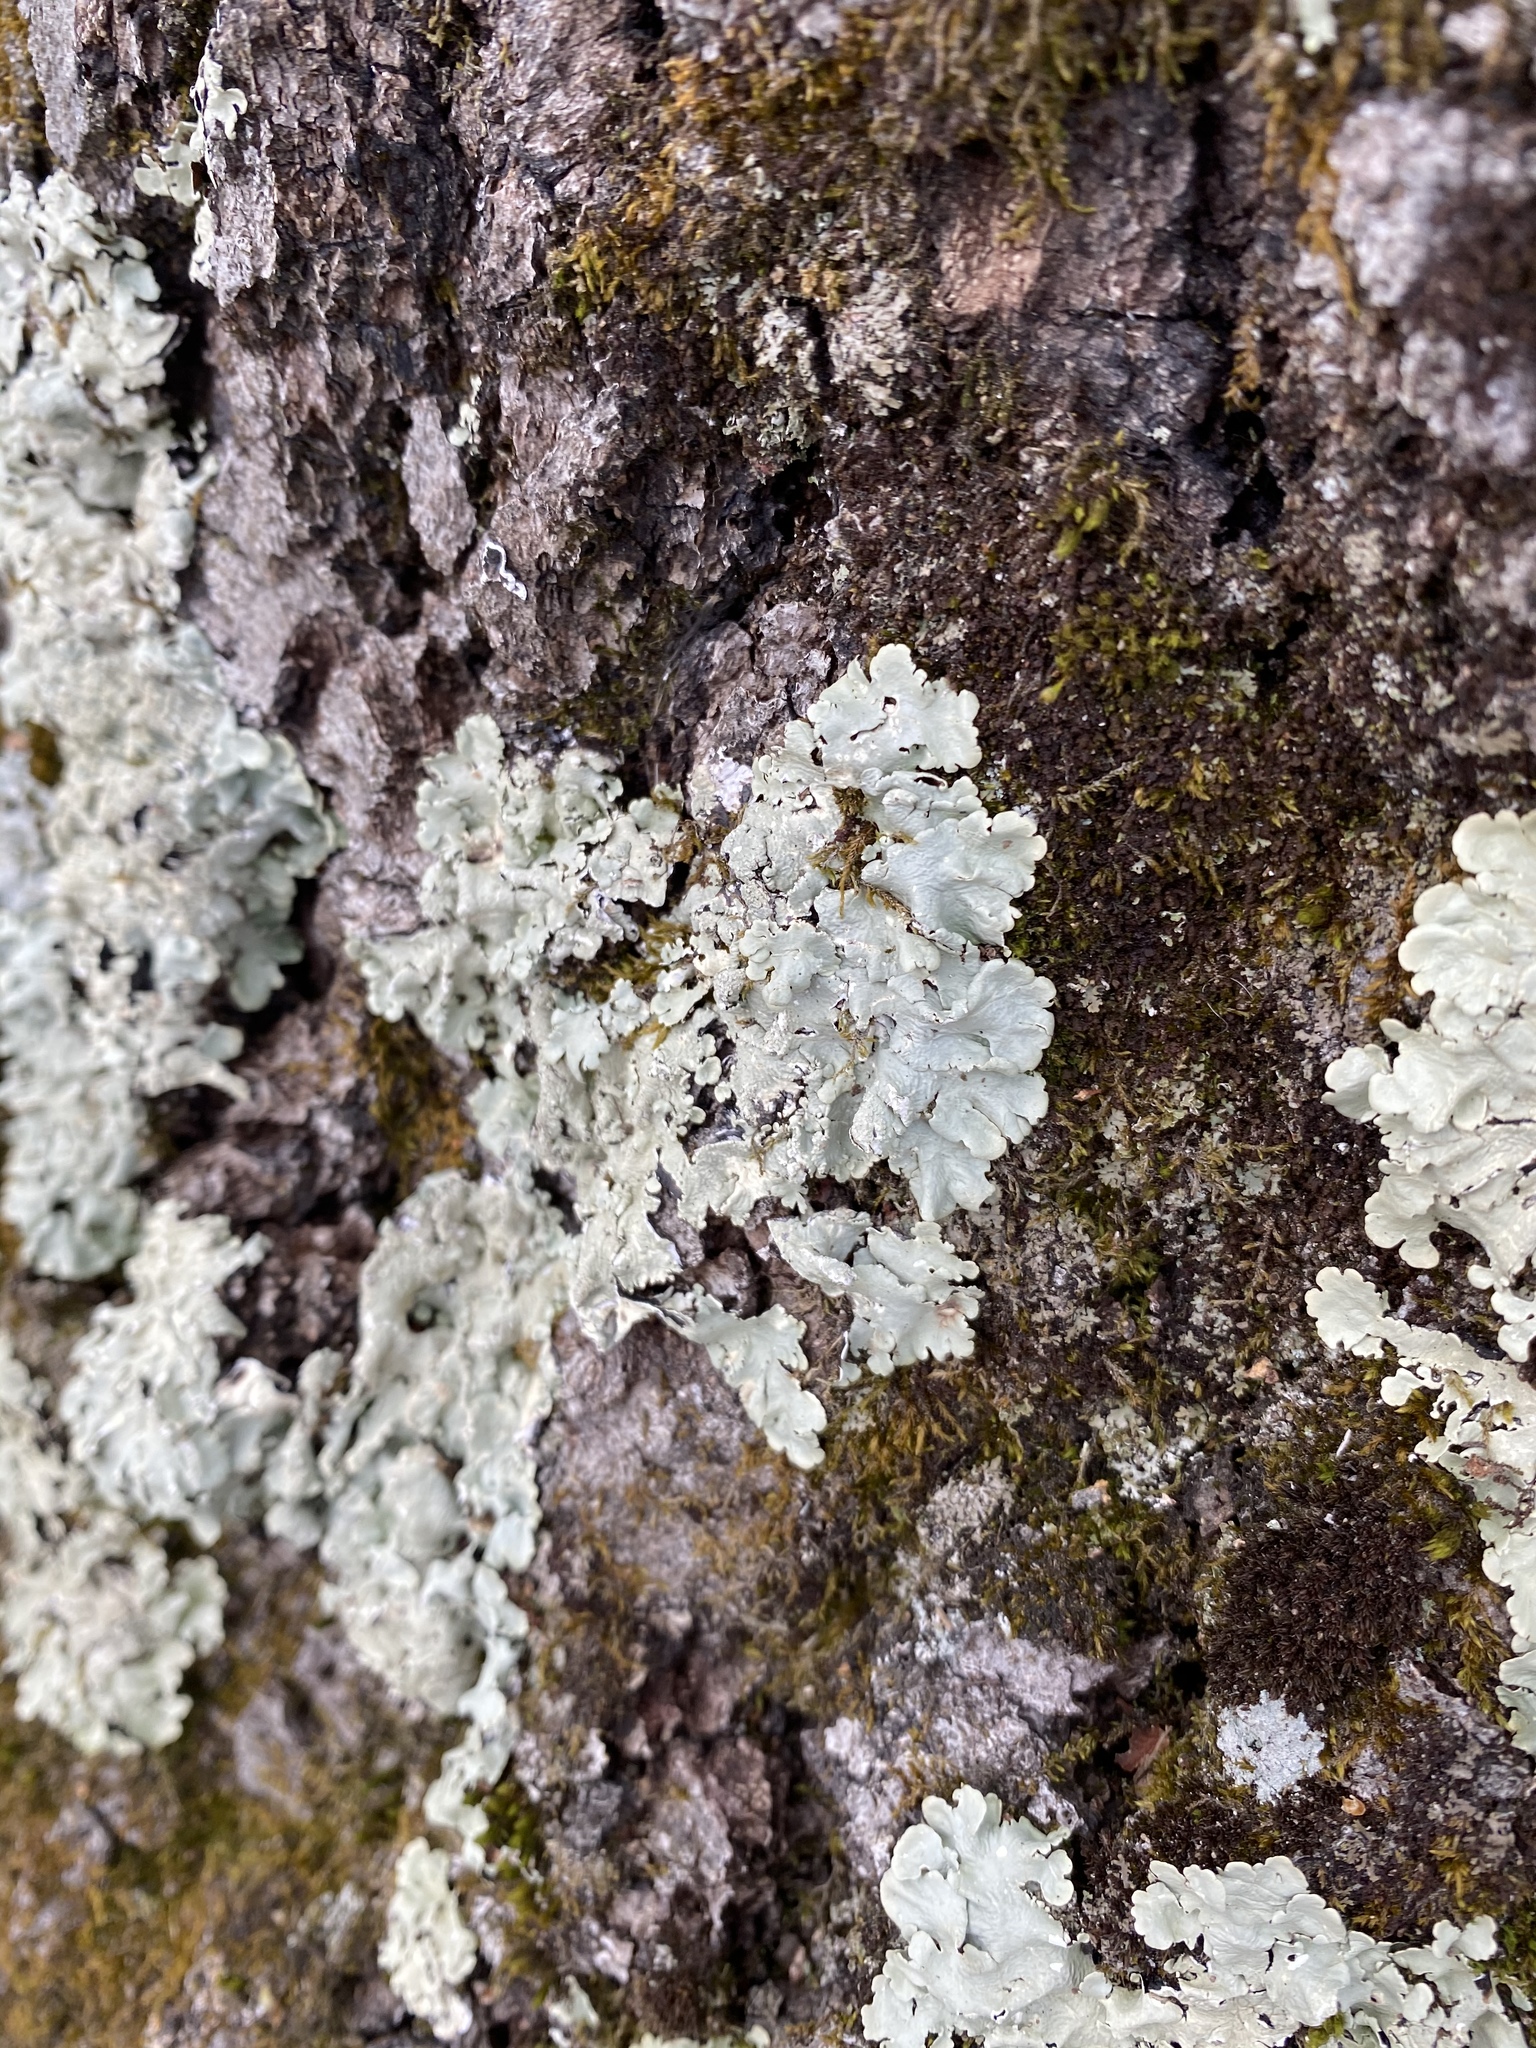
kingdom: Fungi
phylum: Ascomycota
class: Lecanoromycetes
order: Lecanorales
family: Parmeliaceae
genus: Flavoparmelia
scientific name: Flavoparmelia caperata
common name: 40-mile per hour lichen
